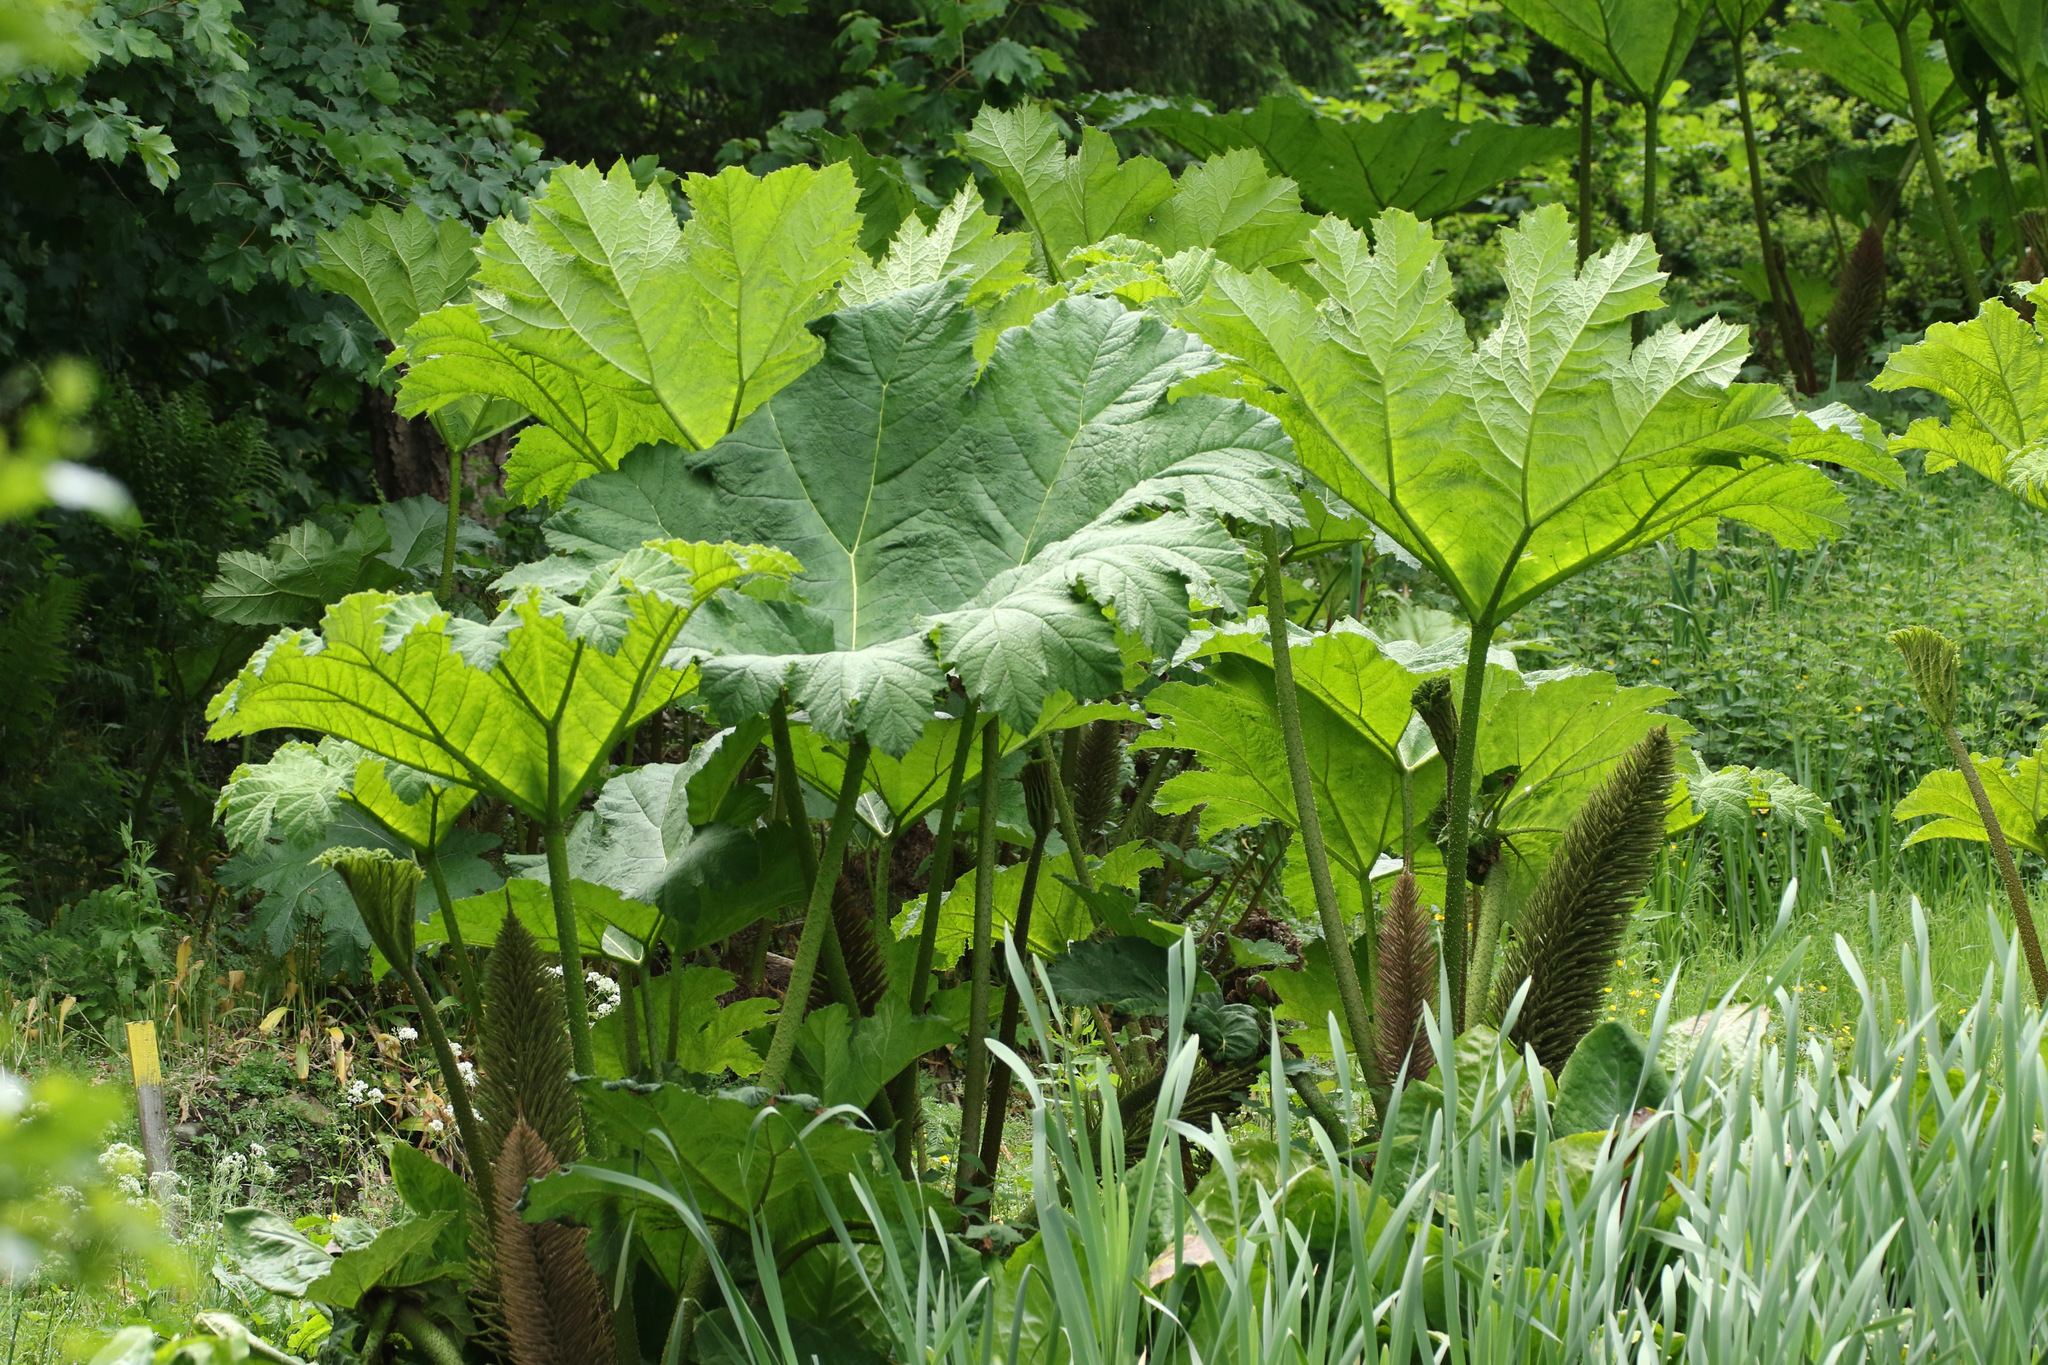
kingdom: Plantae
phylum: Tracheophyta
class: Magnoliopsida
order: Gunnerales
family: Gunneraceae
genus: Gunnera
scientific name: Gunnera tinctoria
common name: Giant-rhubarb
